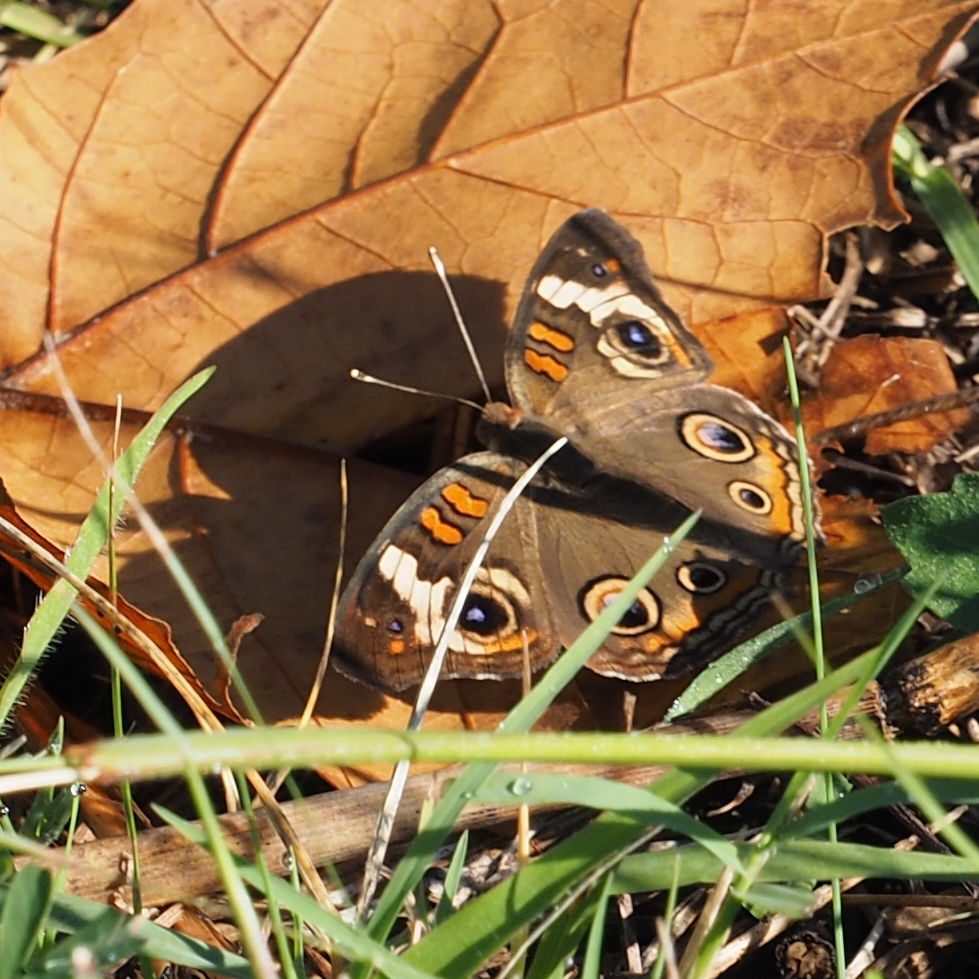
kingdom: Animalia
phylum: Arthropoda
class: Insecta
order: Lepidoptera
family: Nymphalidae
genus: Junonia
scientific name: Junonia coenia
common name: Common buckeye
